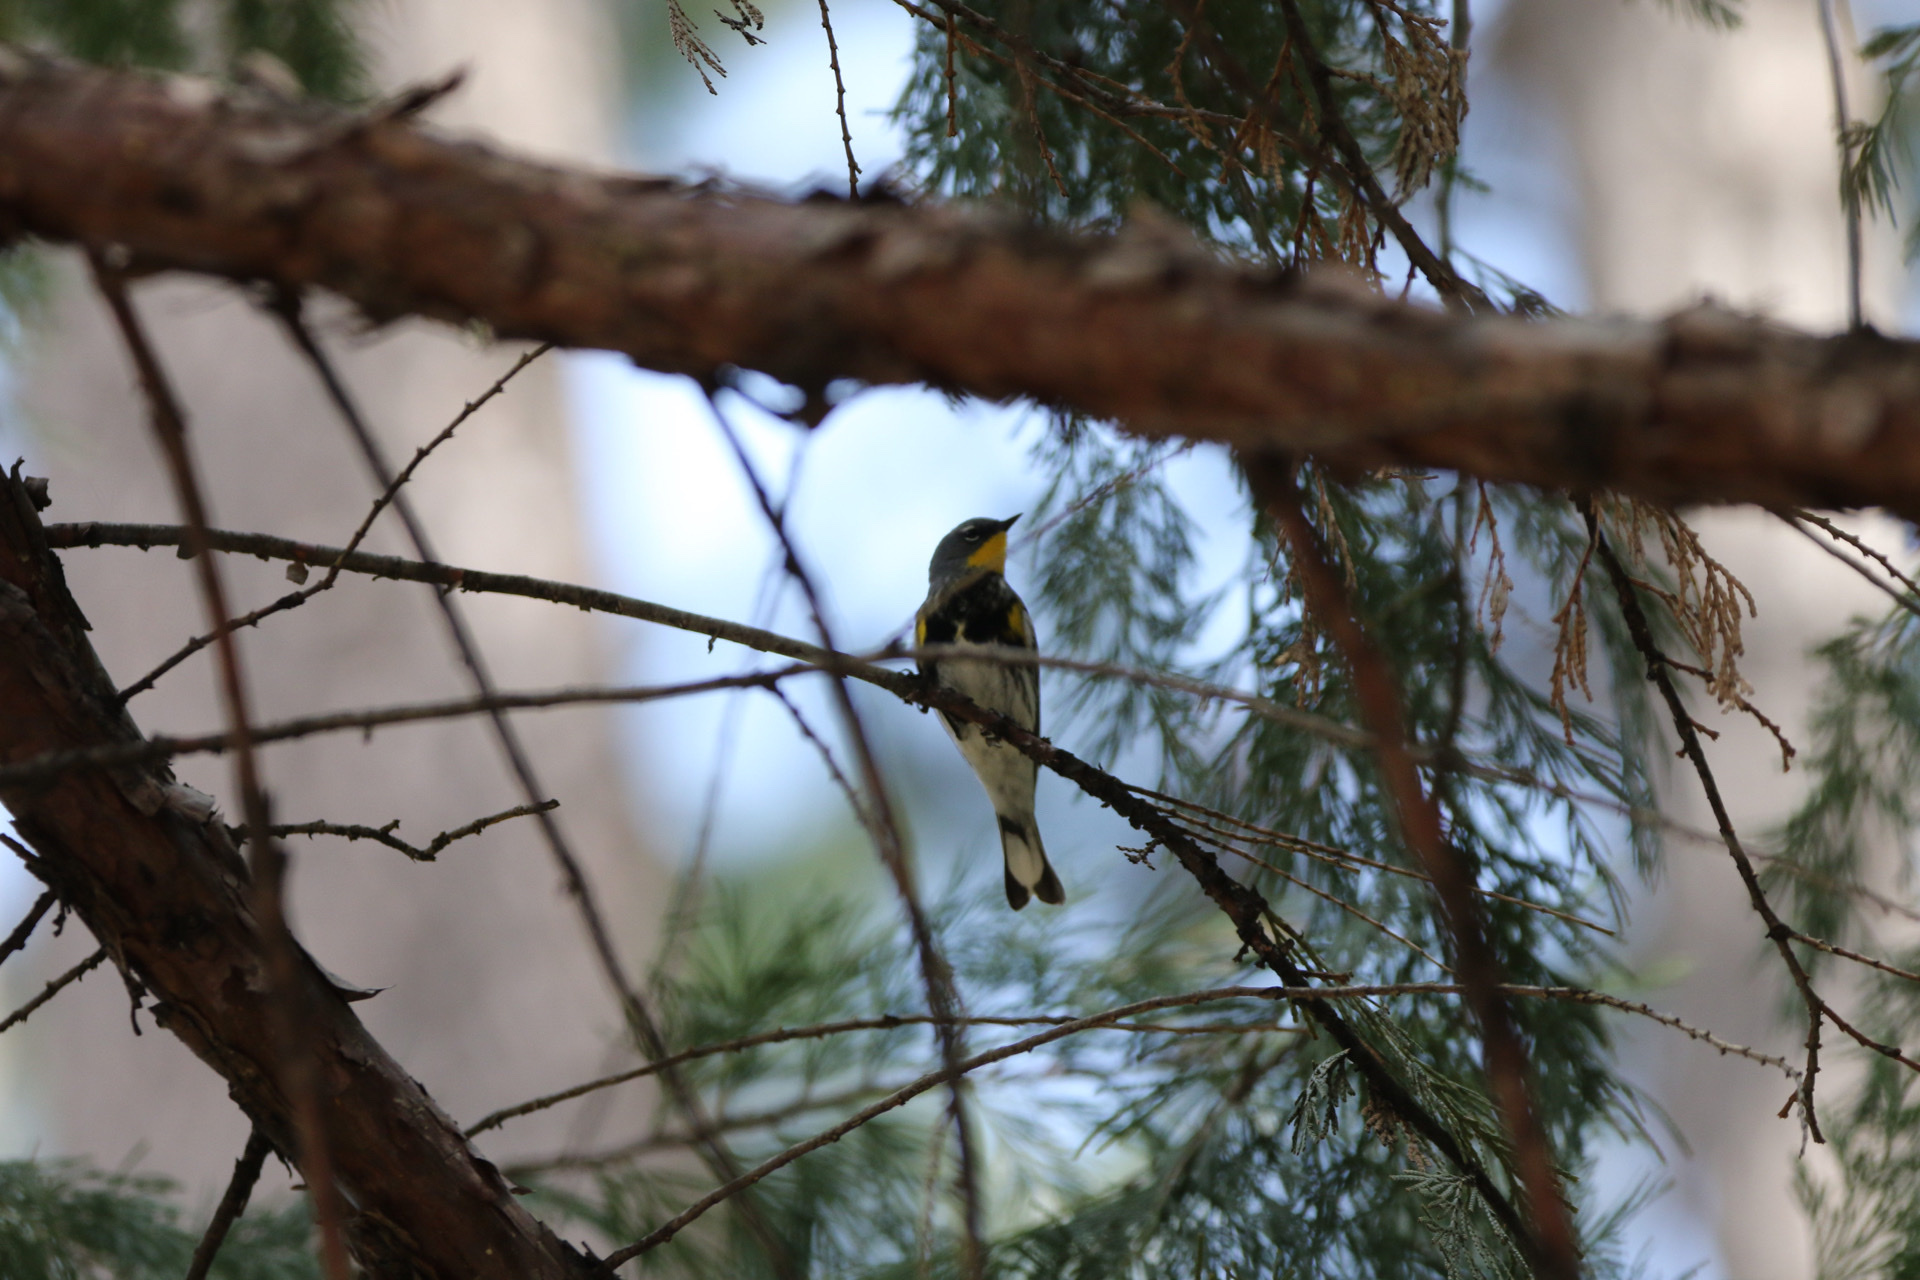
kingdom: Animalia
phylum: Chordata
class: Aves
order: Passeriformes
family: Parulidae
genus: Setophaga
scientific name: Setophaga coronata
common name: Myrtle warbler
